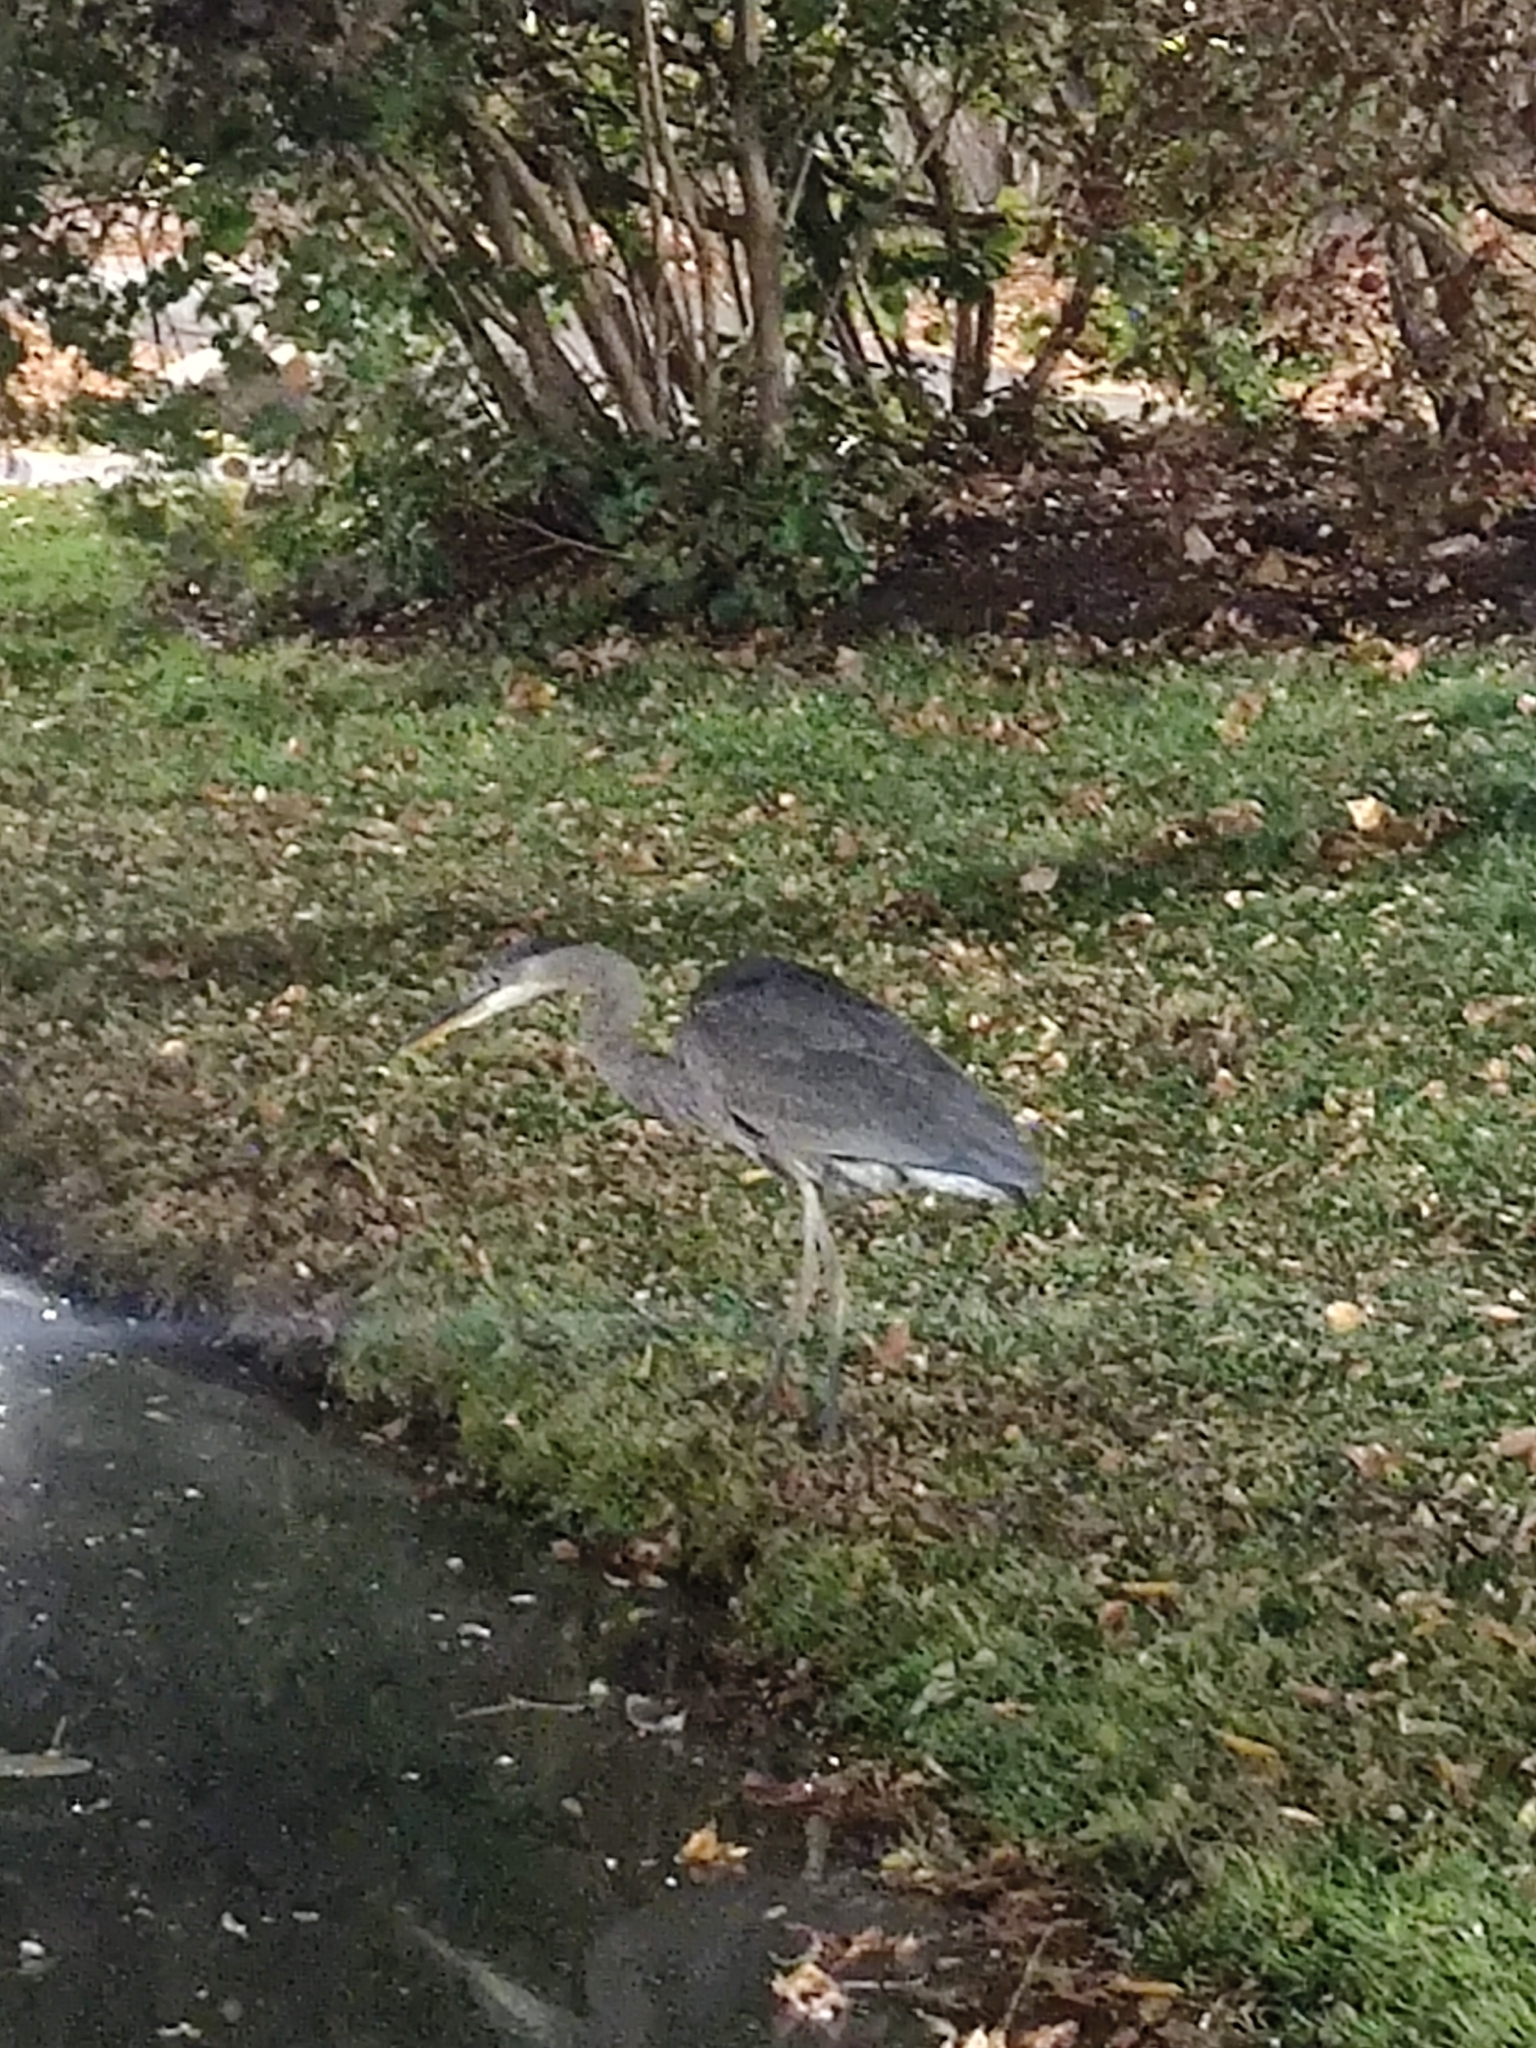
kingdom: Animalia
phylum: Chordata
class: Aves
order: Pelecaniformes
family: Ardeidae
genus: Ardea
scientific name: Ardea herodias
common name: Great blue heron
